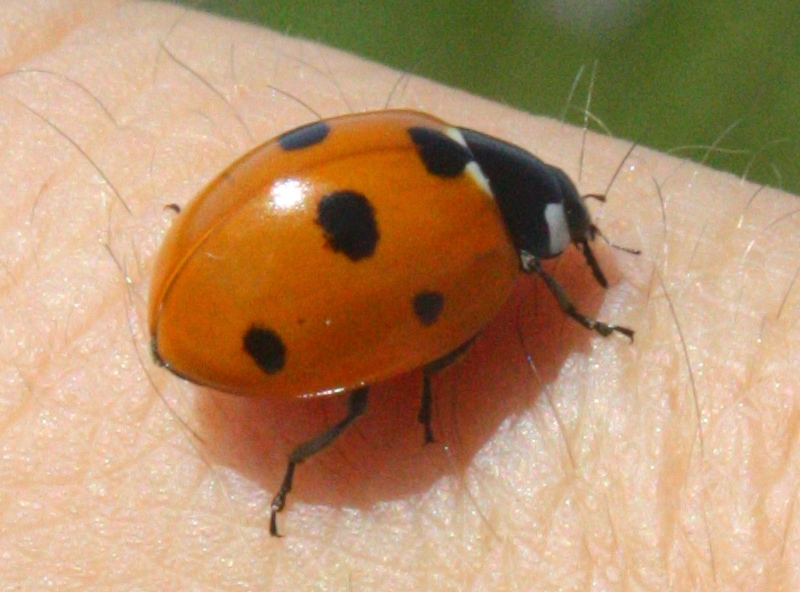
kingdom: Animalia
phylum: Arthropoda
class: Insecta
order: Coleoptera
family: Coccinellidae
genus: Coccinella
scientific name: Coccinella septempunctata
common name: Sevenspotted lady beetle
